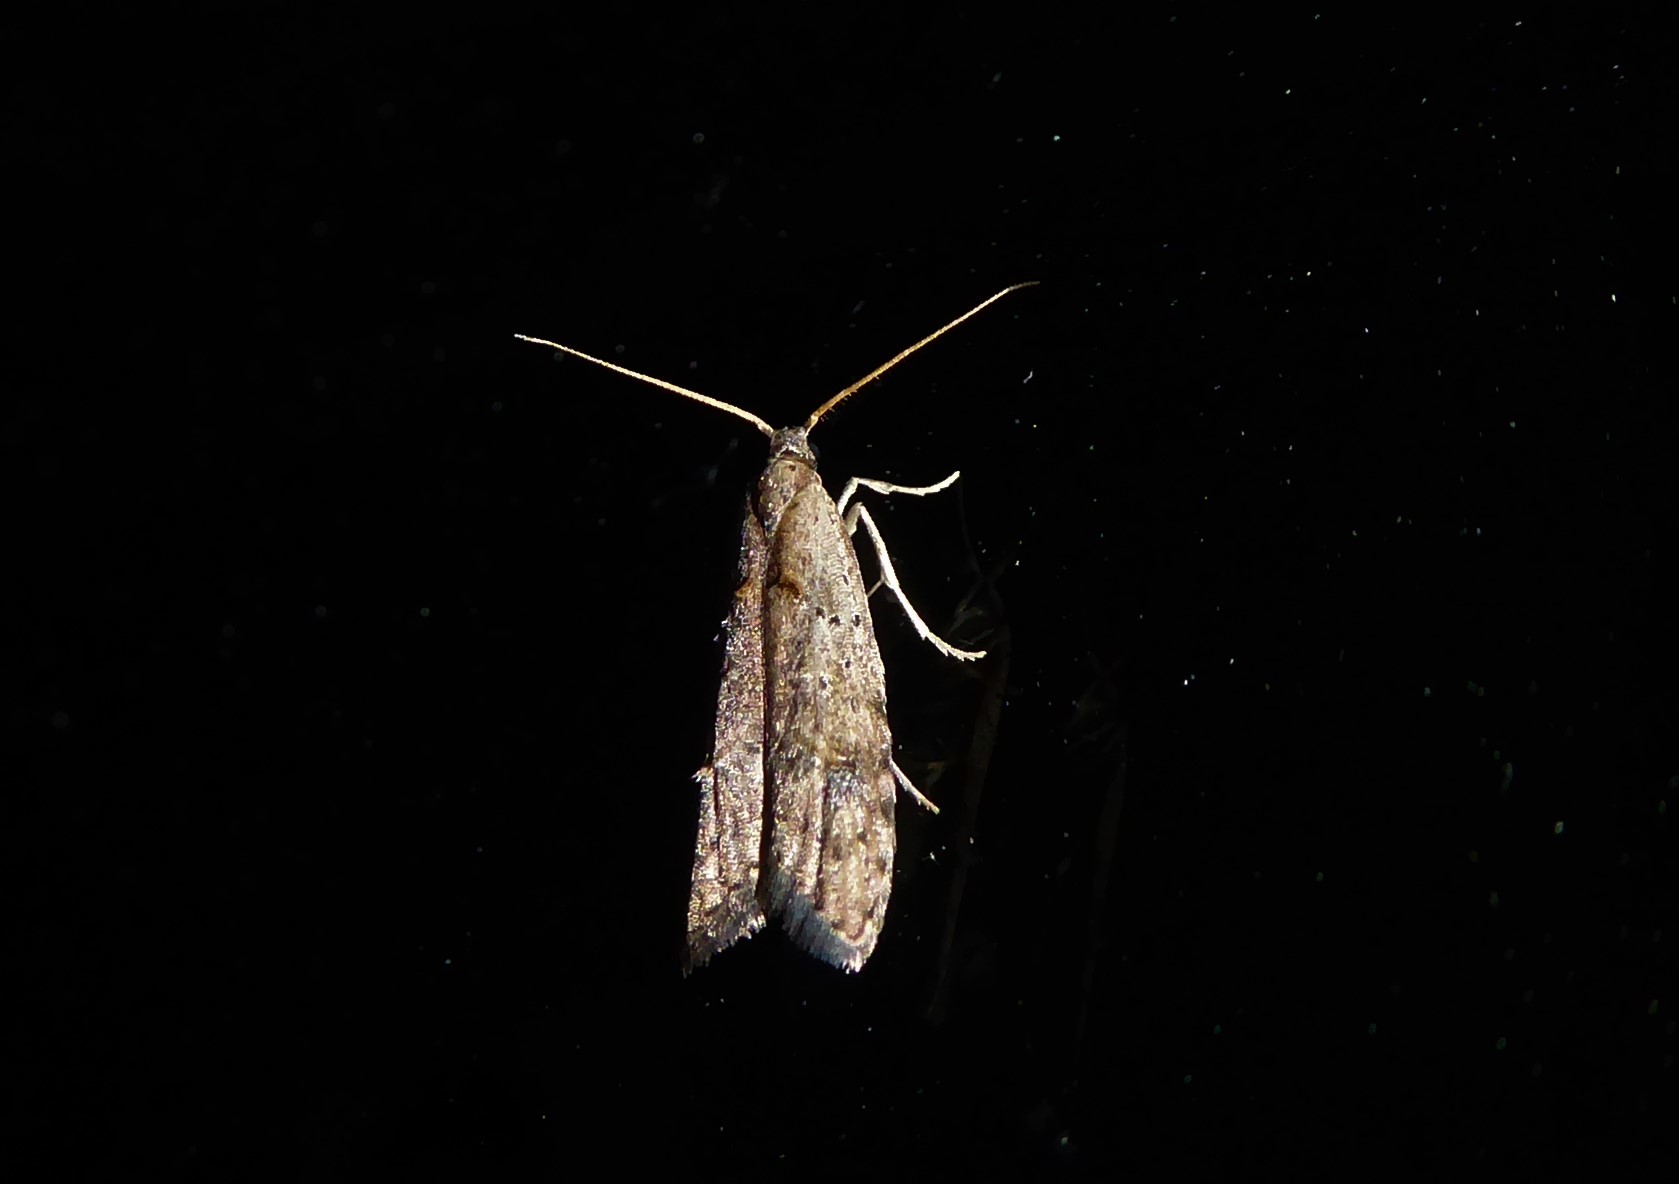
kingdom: Animalia
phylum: Arthropoda
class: Insecta
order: Lepidoptera
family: Carposinidae
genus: Carposina
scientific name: Carposina rubophaga
